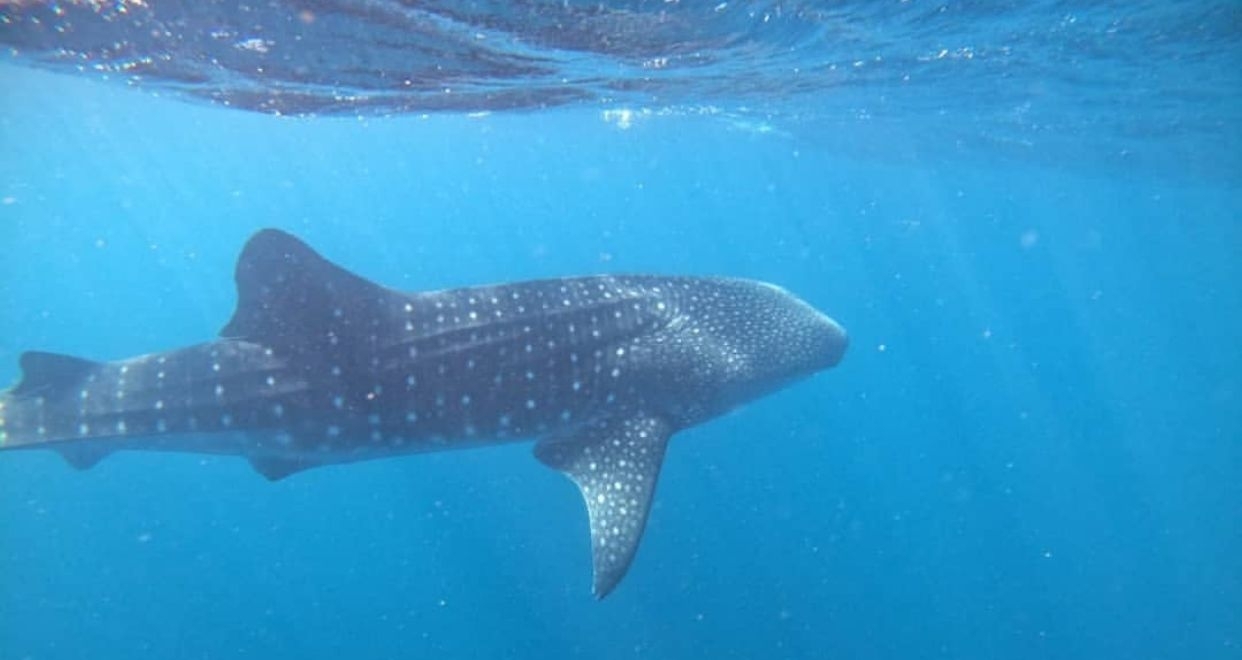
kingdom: Animalia
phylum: Chordata
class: Elasmobranchii
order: Orectolobiformes
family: Rhincodontidae
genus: Rhincodon
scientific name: Rhincodon typus
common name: Whale shark
